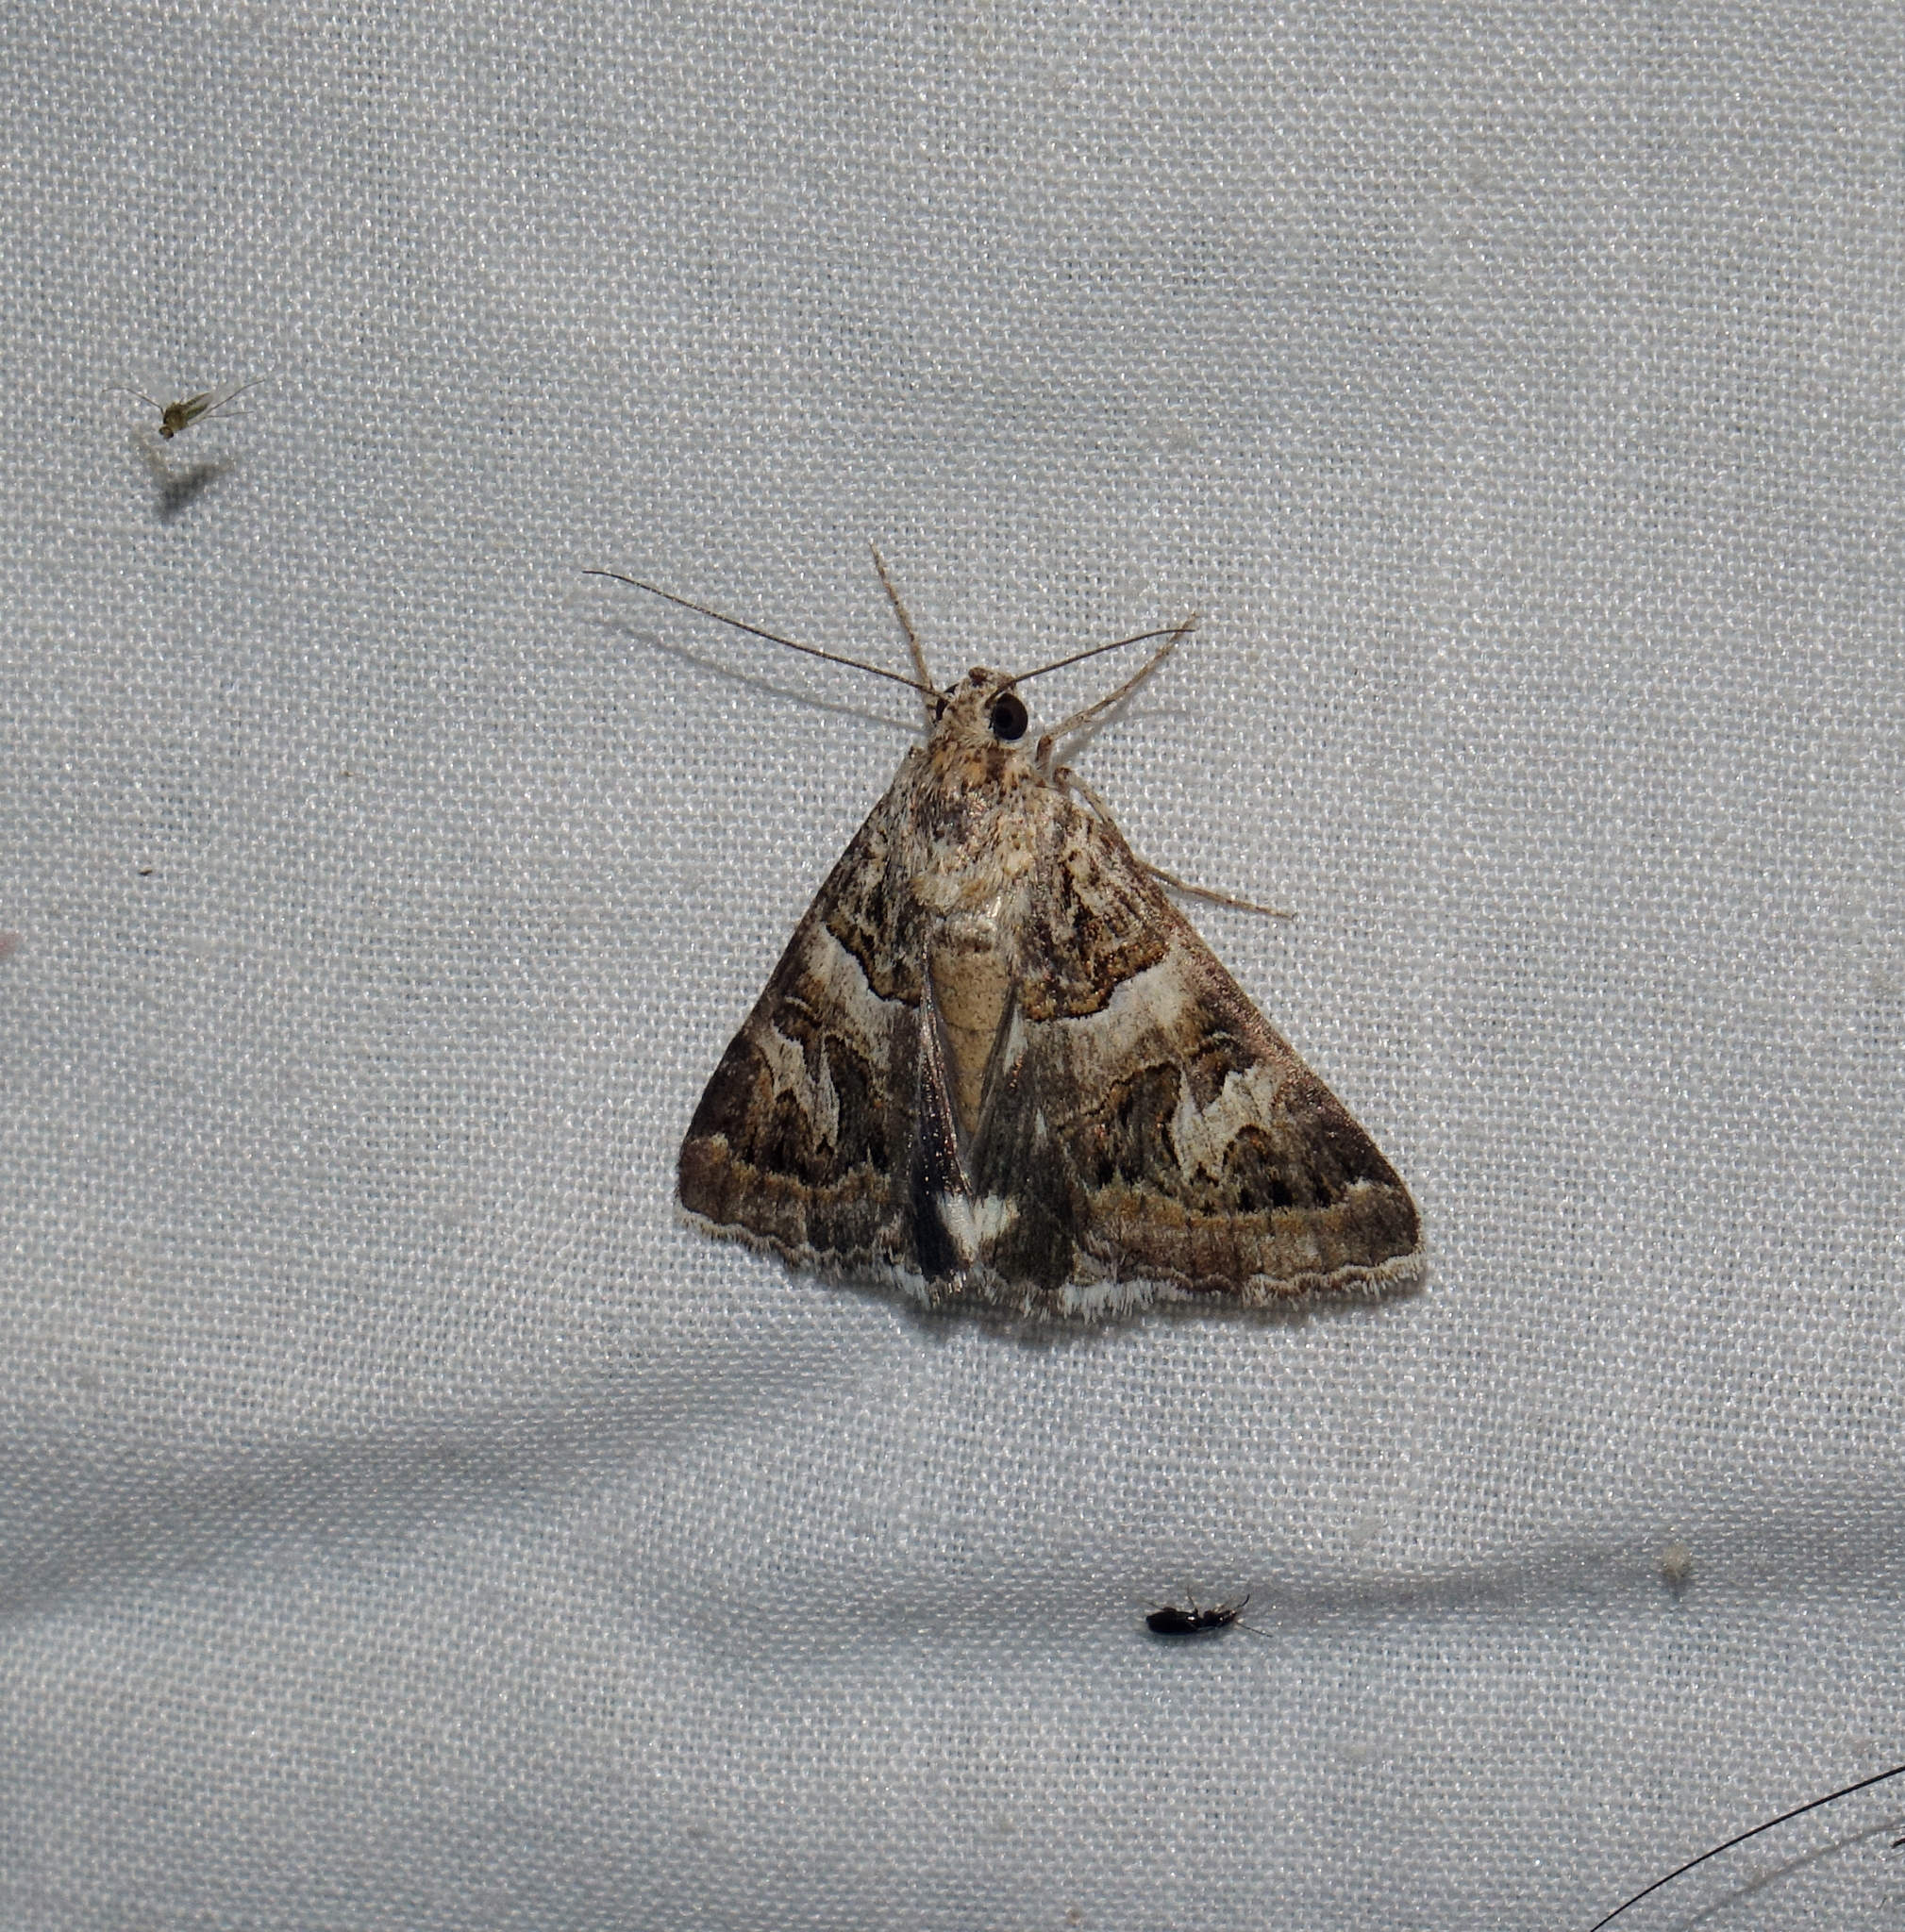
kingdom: Animalia
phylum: Arthropoda
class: Insecta
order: Lepidoptera
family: Erebidae
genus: Drasteria
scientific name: Drasteria picta
